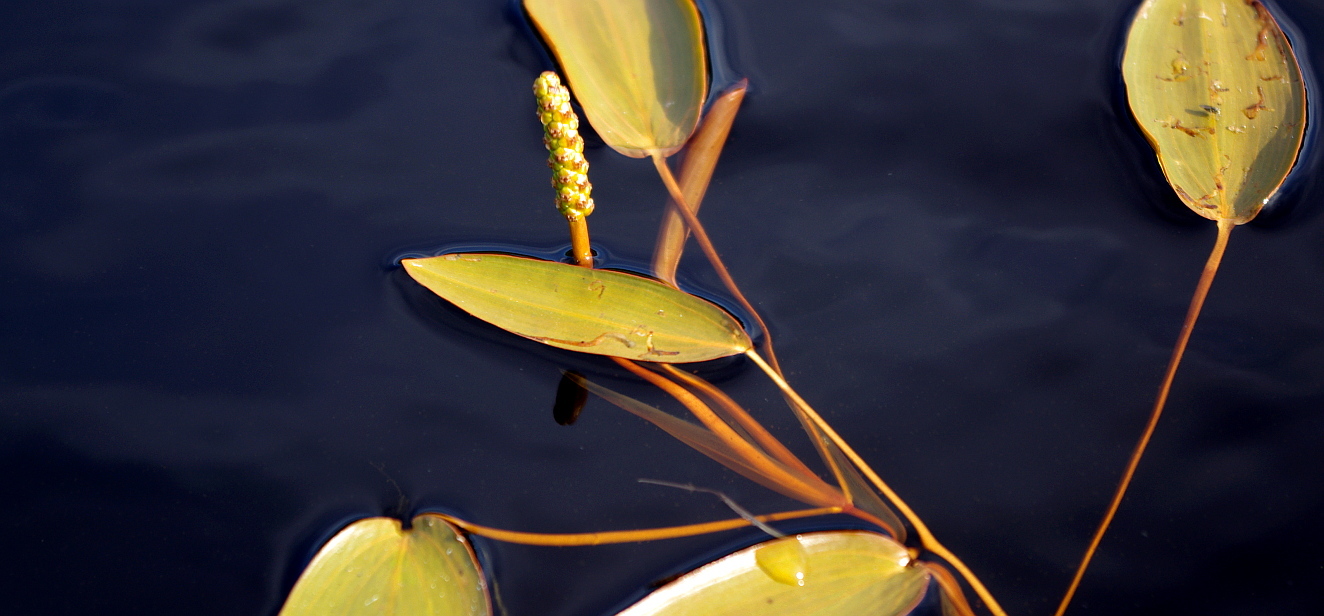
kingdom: Plantae
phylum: Tracheophyta
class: Liliopsida
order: Alismatales
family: Potamogetonaceae
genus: Potamogeton
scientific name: Potamogeton natans
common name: Broad-leaved pondweed
